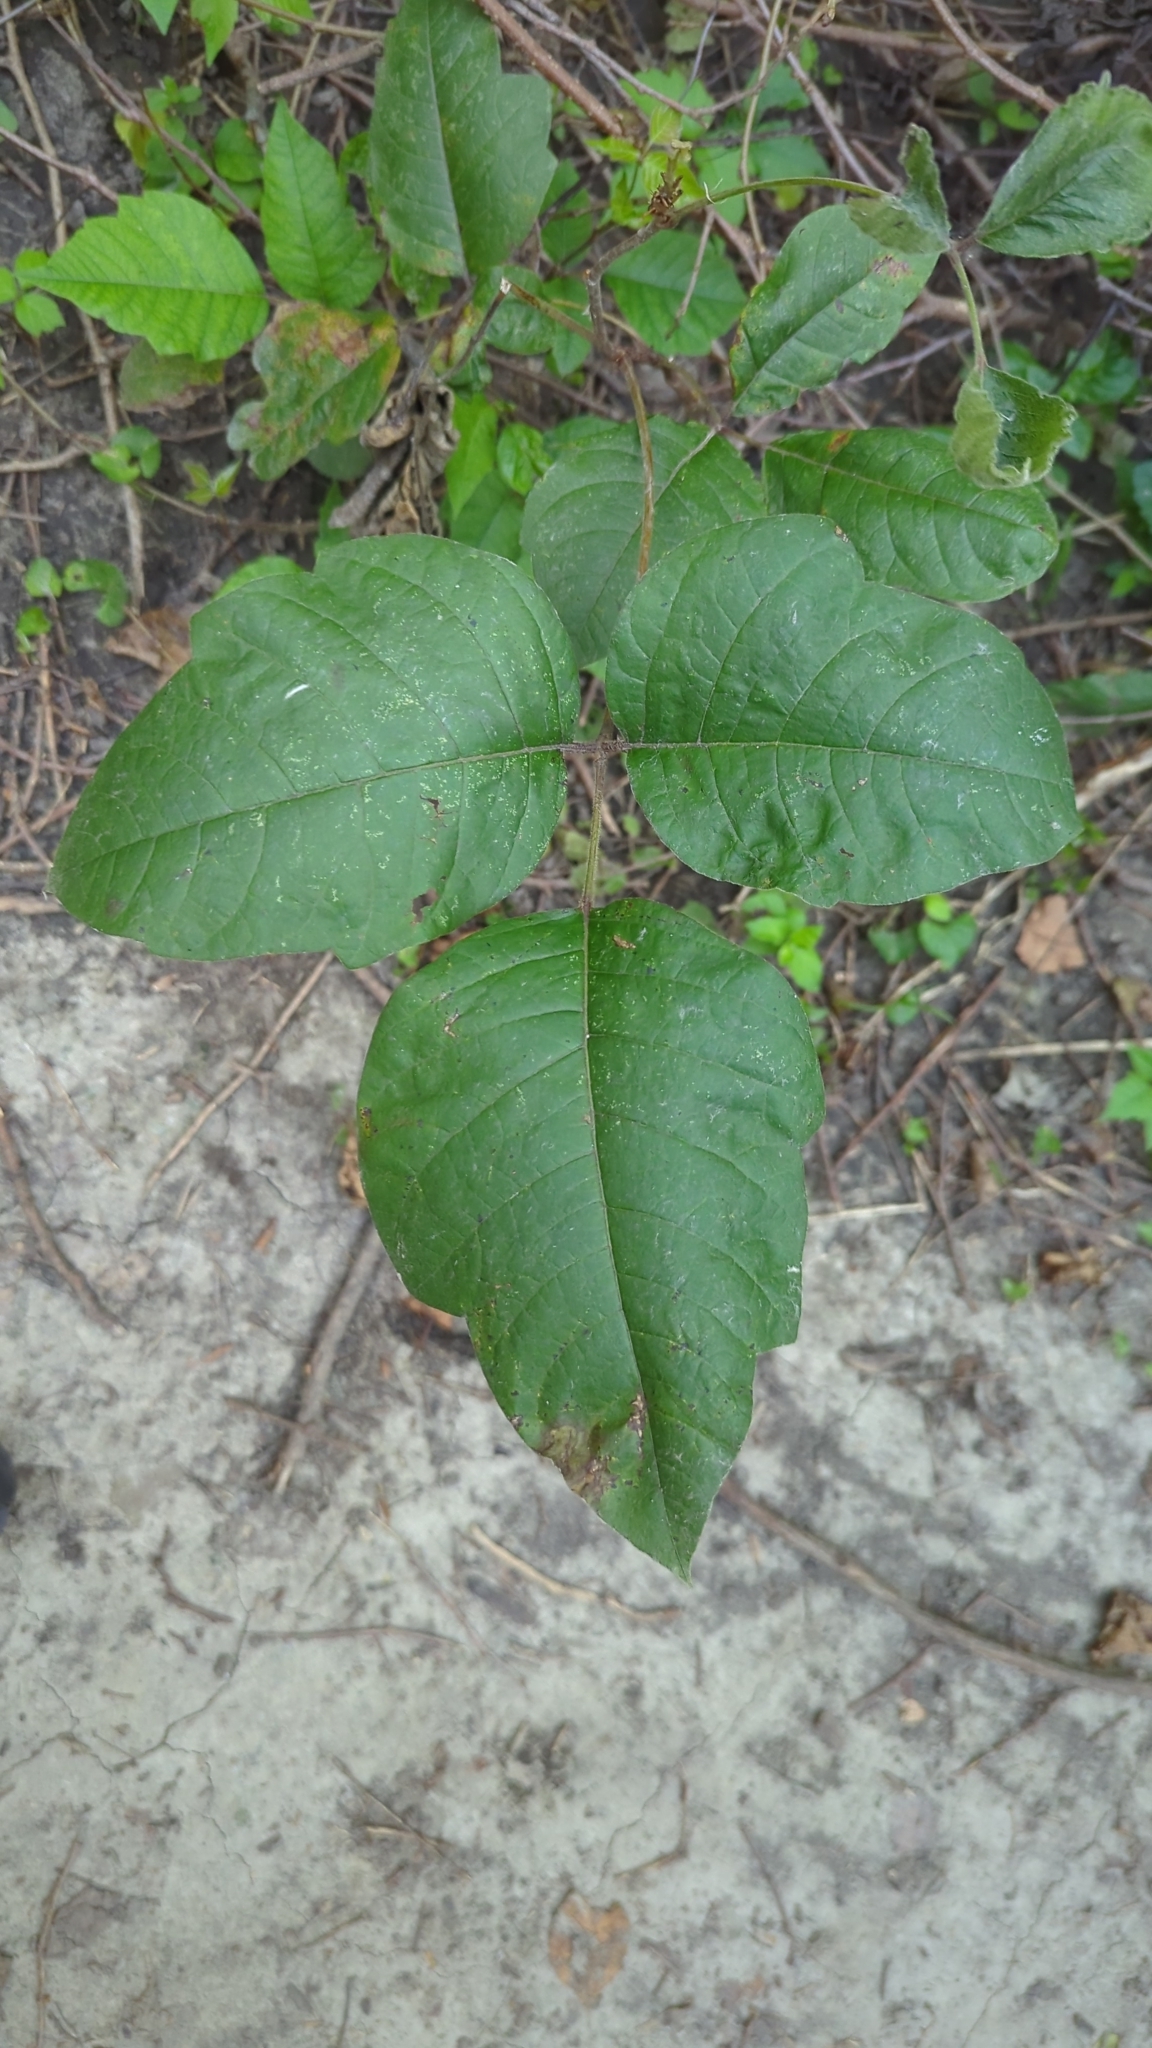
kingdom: Plantae
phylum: Tracheophyta
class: Magnoliopsida
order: Sapindales
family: Anacardiaceae
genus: Toxicodendron
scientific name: Toxicodendron radicans
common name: Poison ivy
